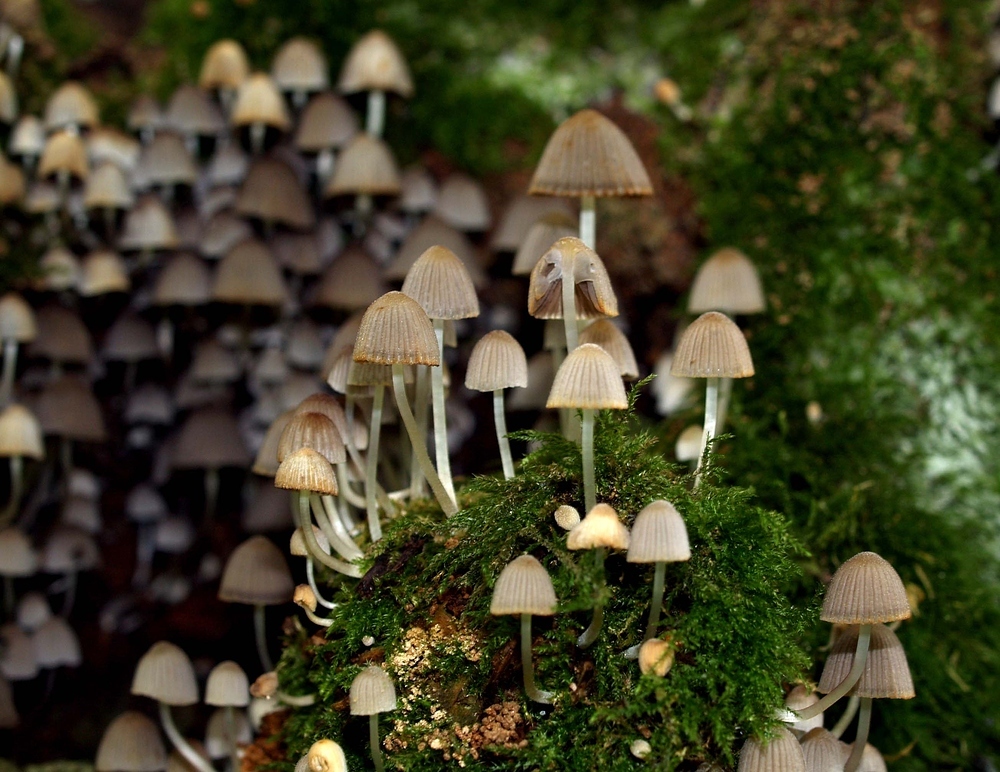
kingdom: Fungi
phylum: Basidiomycota
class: Agaricomycetes
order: Agaricales
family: Psathyrellaceae
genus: Coprinellus
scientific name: Coprinellus disseminatus
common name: Fairies' bonnets
